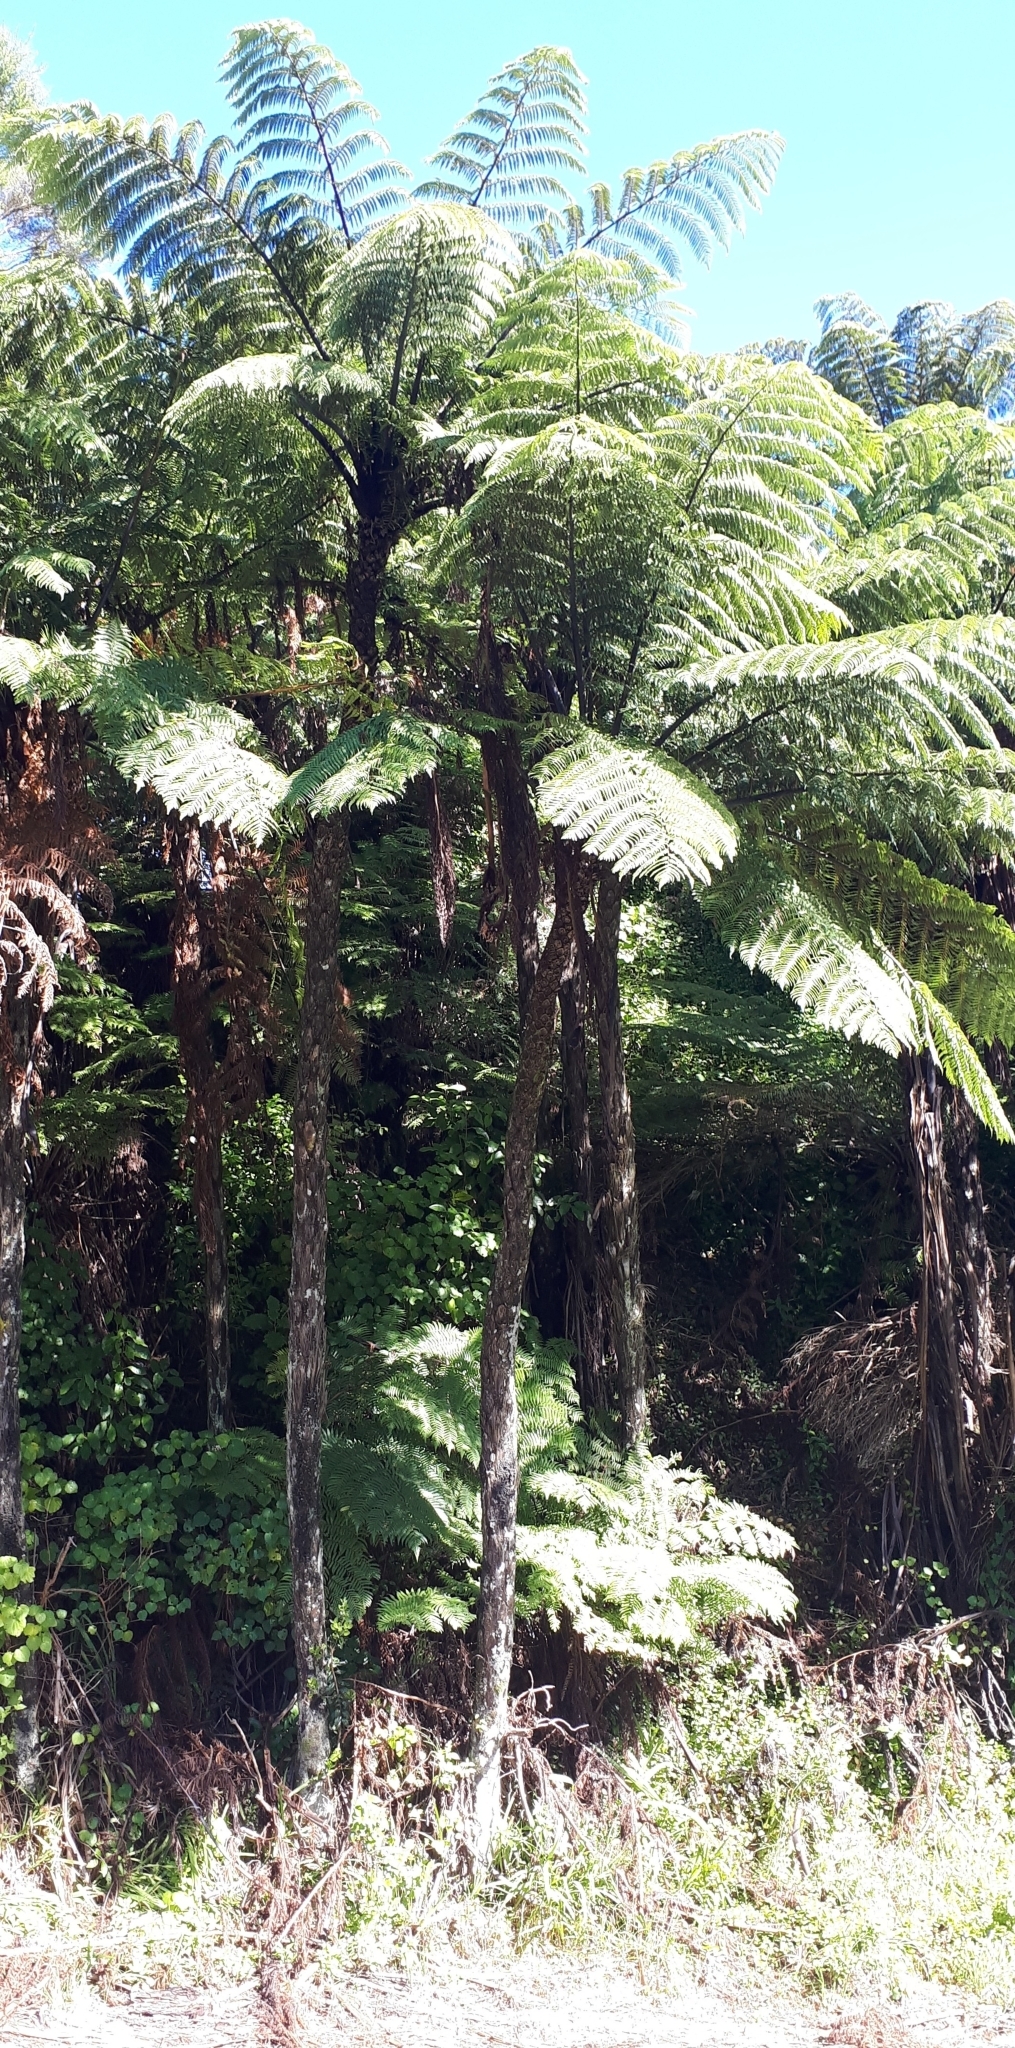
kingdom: Plantae
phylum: Tracheophyta
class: Polypodiopsida
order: Cyatheales
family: Cyatheaceae
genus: Sphaeropteris
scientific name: Sphaeropteris medullaris
